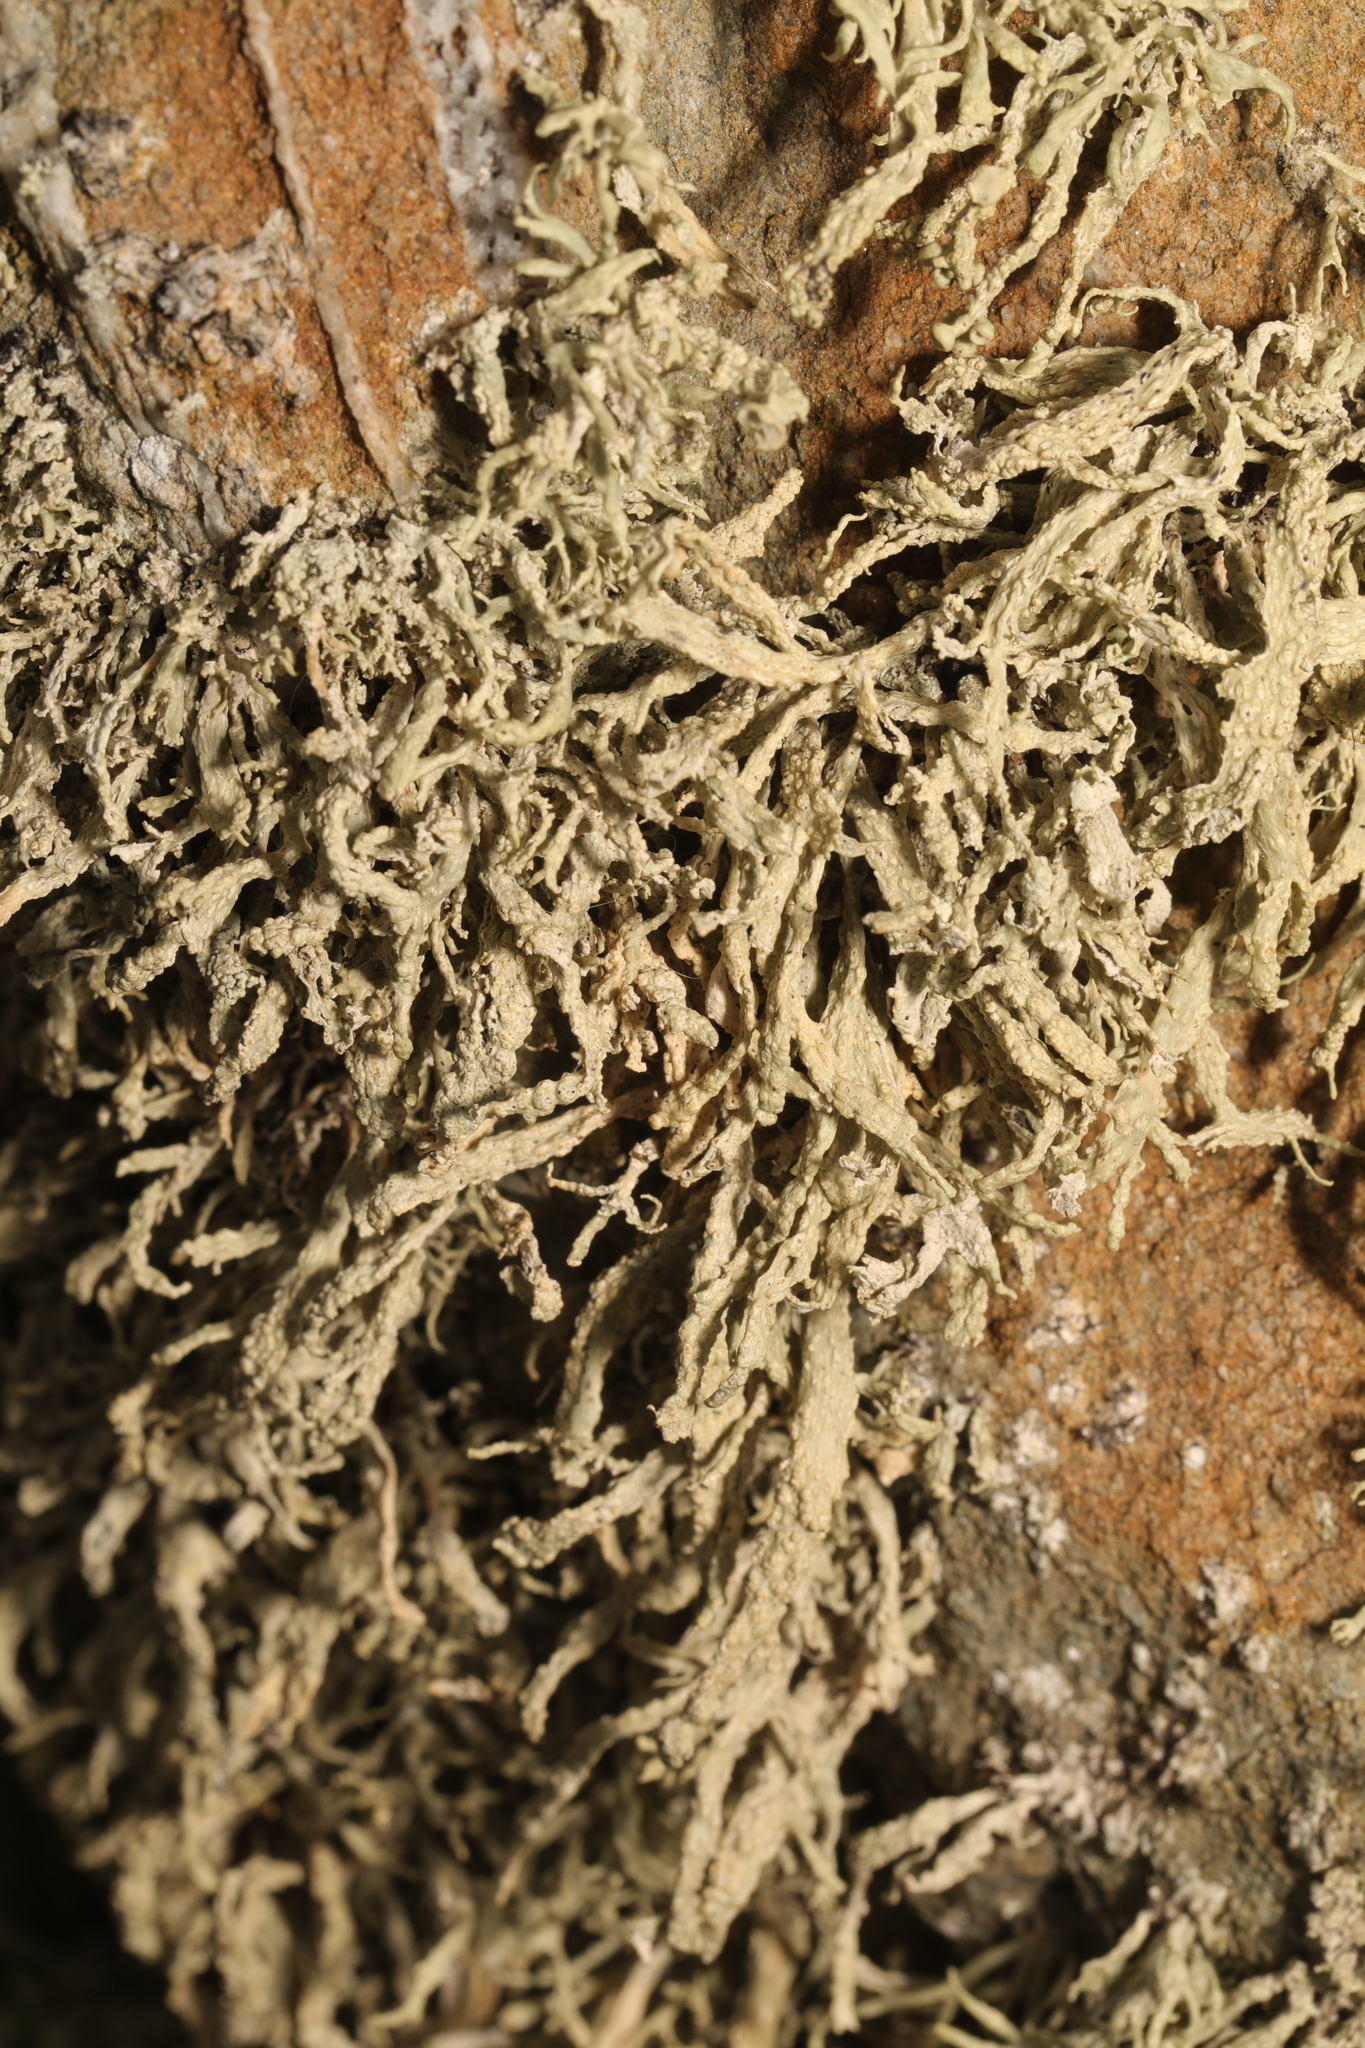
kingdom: Fungi
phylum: Ascomycota
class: Lecanoromycetes
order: Lecanorales
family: Ramalinaceae
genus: Ramalina
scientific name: Ramalina siliquosa
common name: Sea ivory
